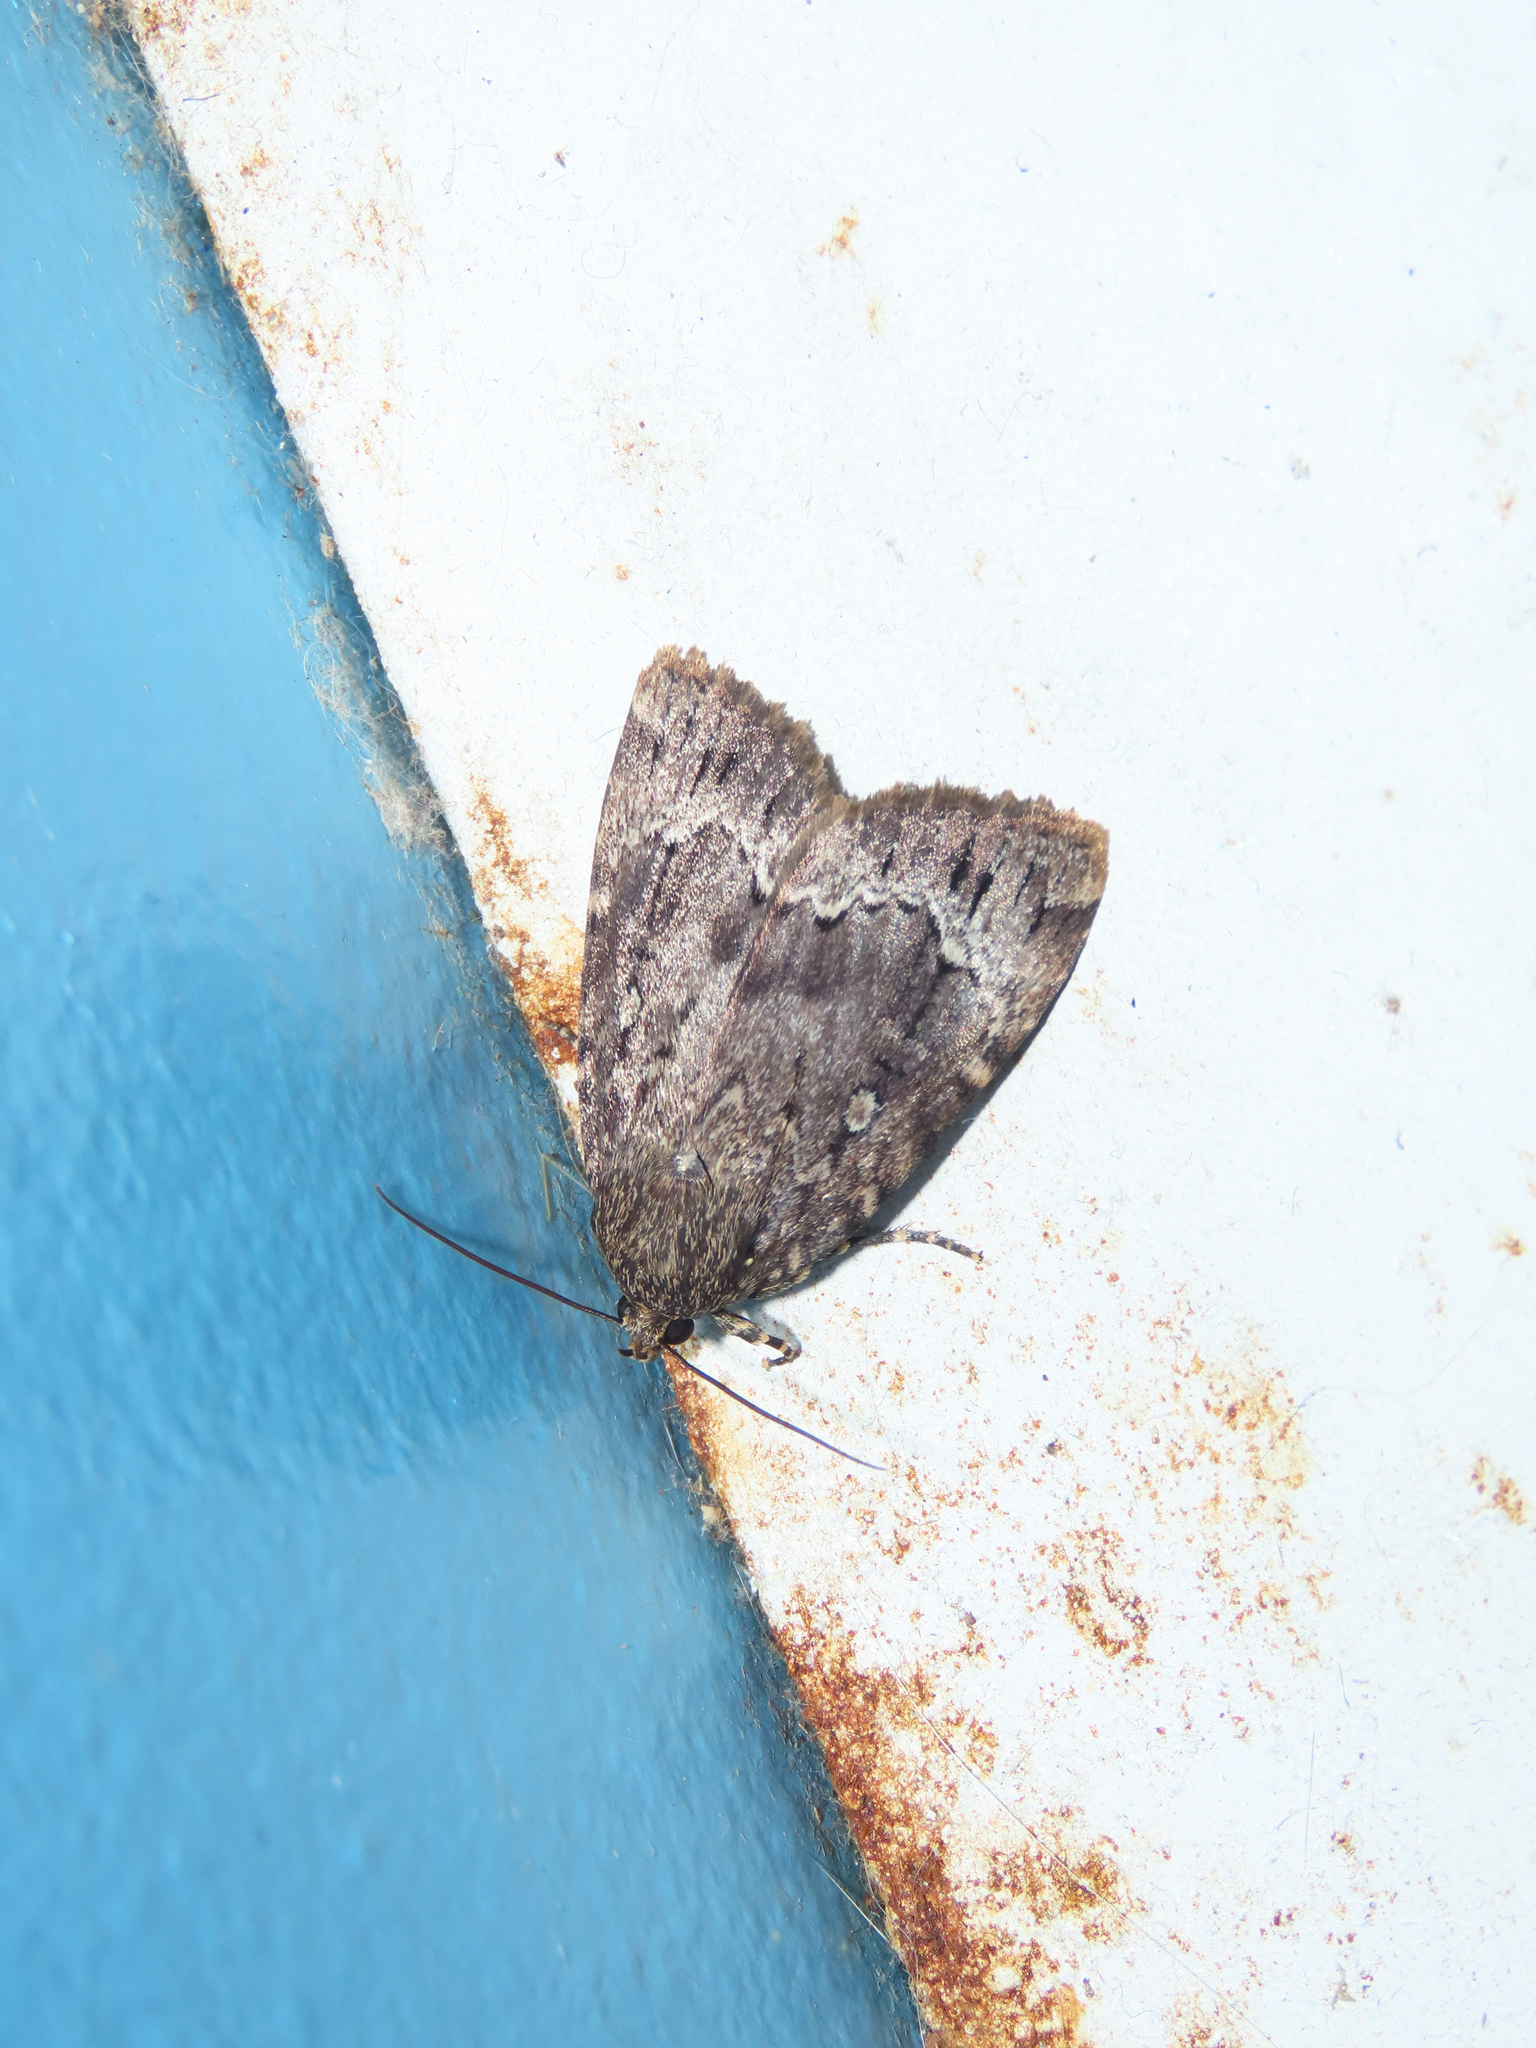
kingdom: Animalia
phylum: Arthropoda
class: Insecta
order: Lepidoptera
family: Noctuidae
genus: Amphipyra
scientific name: Amphipyra pyramidoides
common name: American copper underwing
